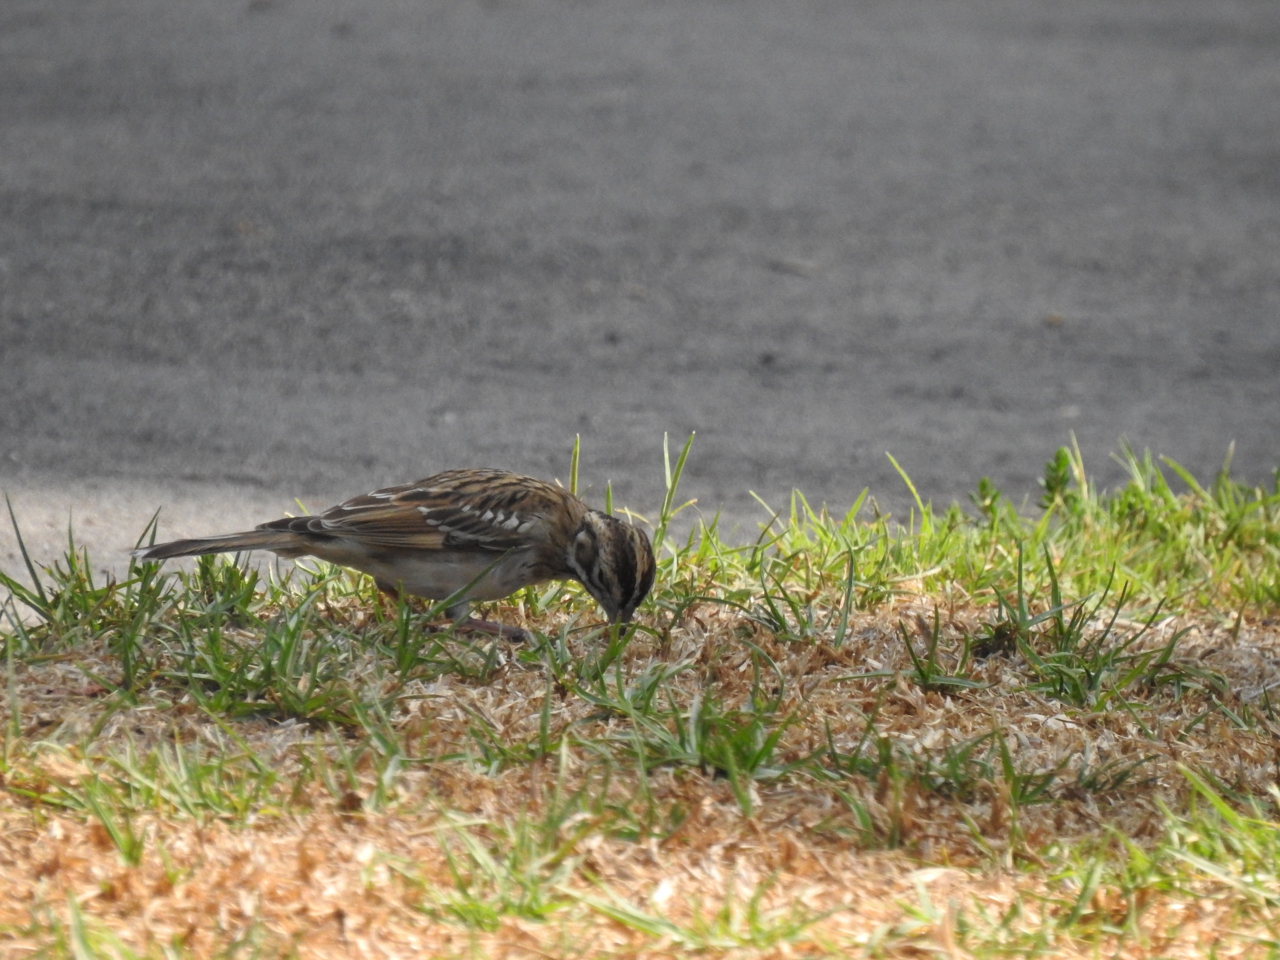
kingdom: Animalia
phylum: Chordata
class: Aves
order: Passeriformes
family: Passerellidae
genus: Chondestes
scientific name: Chondestes grammacus
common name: Lark sparrow
